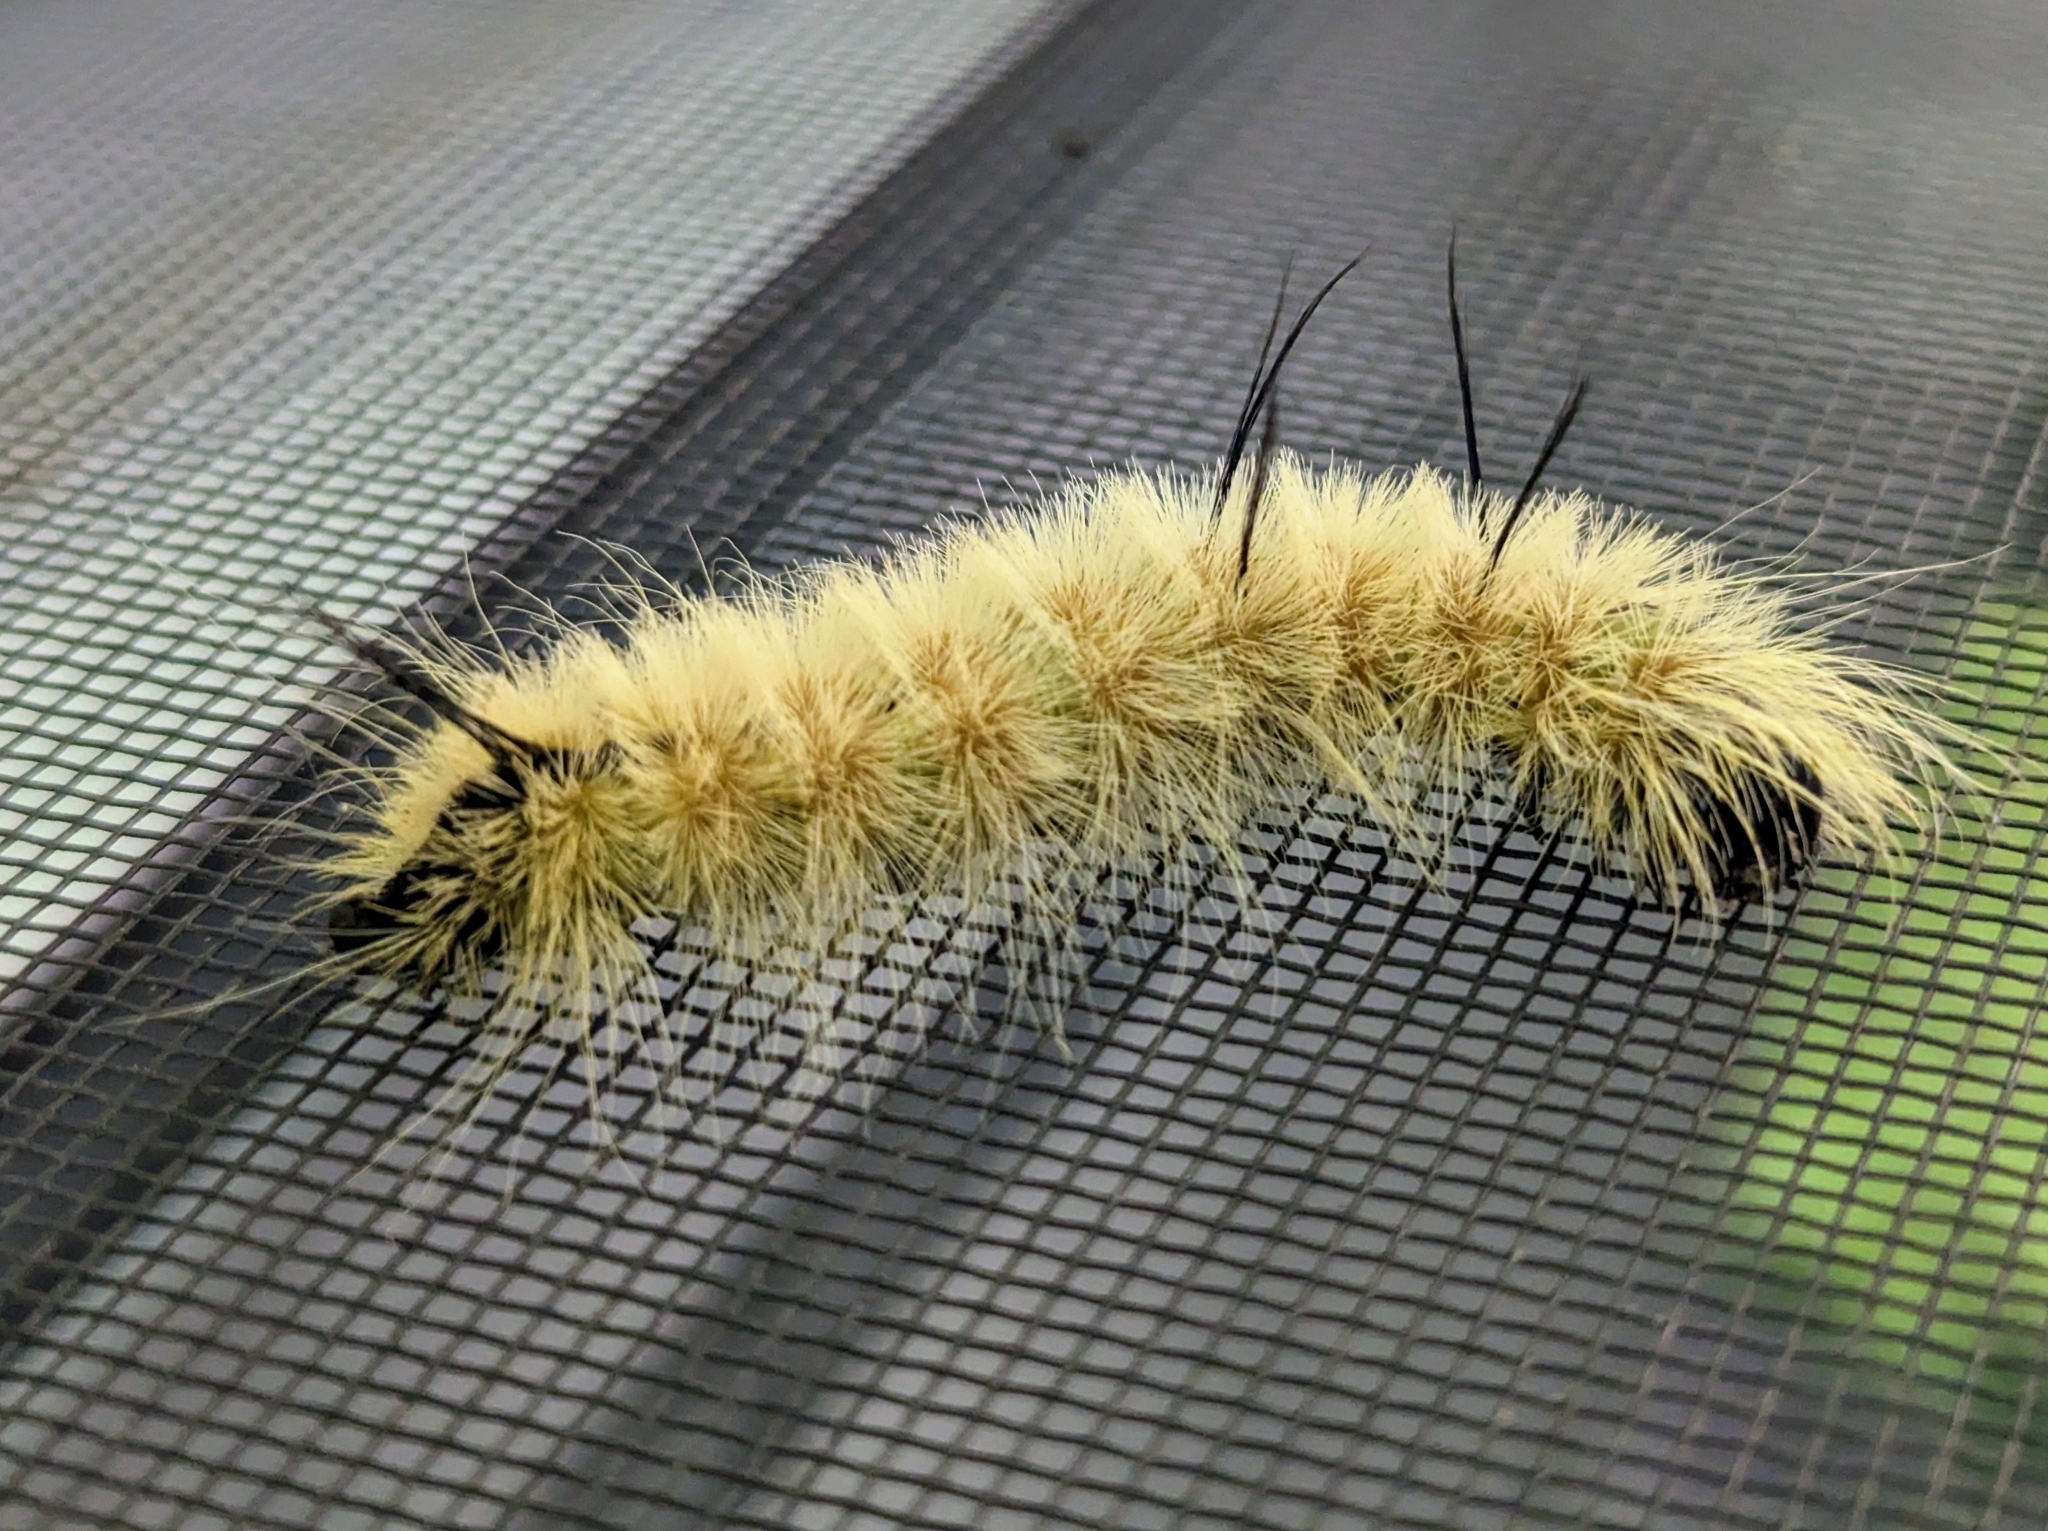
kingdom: Animalia
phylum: Arthropoda
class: Insecta
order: Lepidoptera
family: Noctuidae
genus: Acronicta
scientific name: Acronicta americana
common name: American dagger
